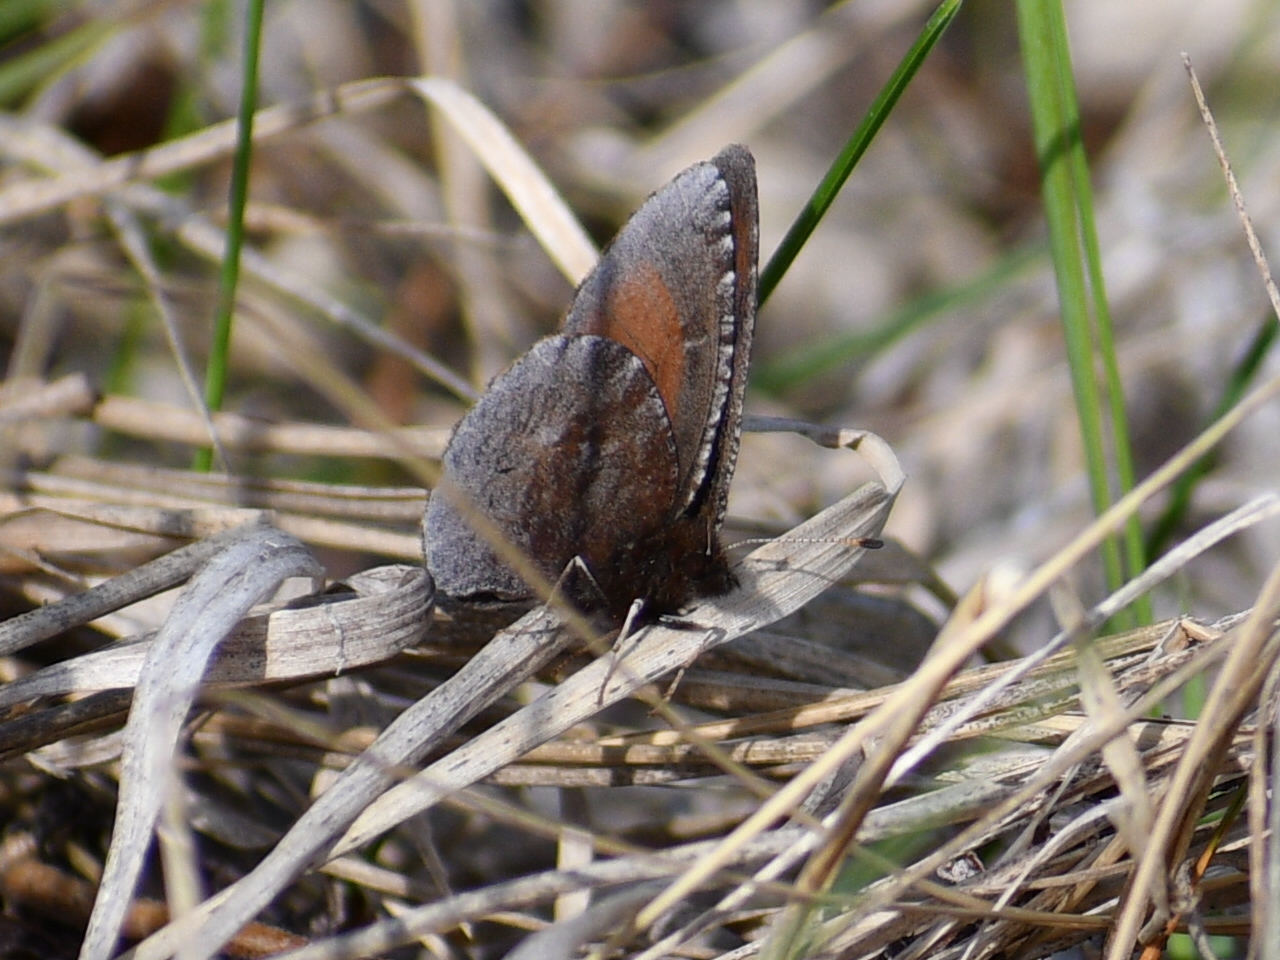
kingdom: Animalia
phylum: Arthropoda
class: Insecta
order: Lepidoptera
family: Nymphalidae
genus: Erebia
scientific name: Erebia discoidalis
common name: Red-disked alpine
